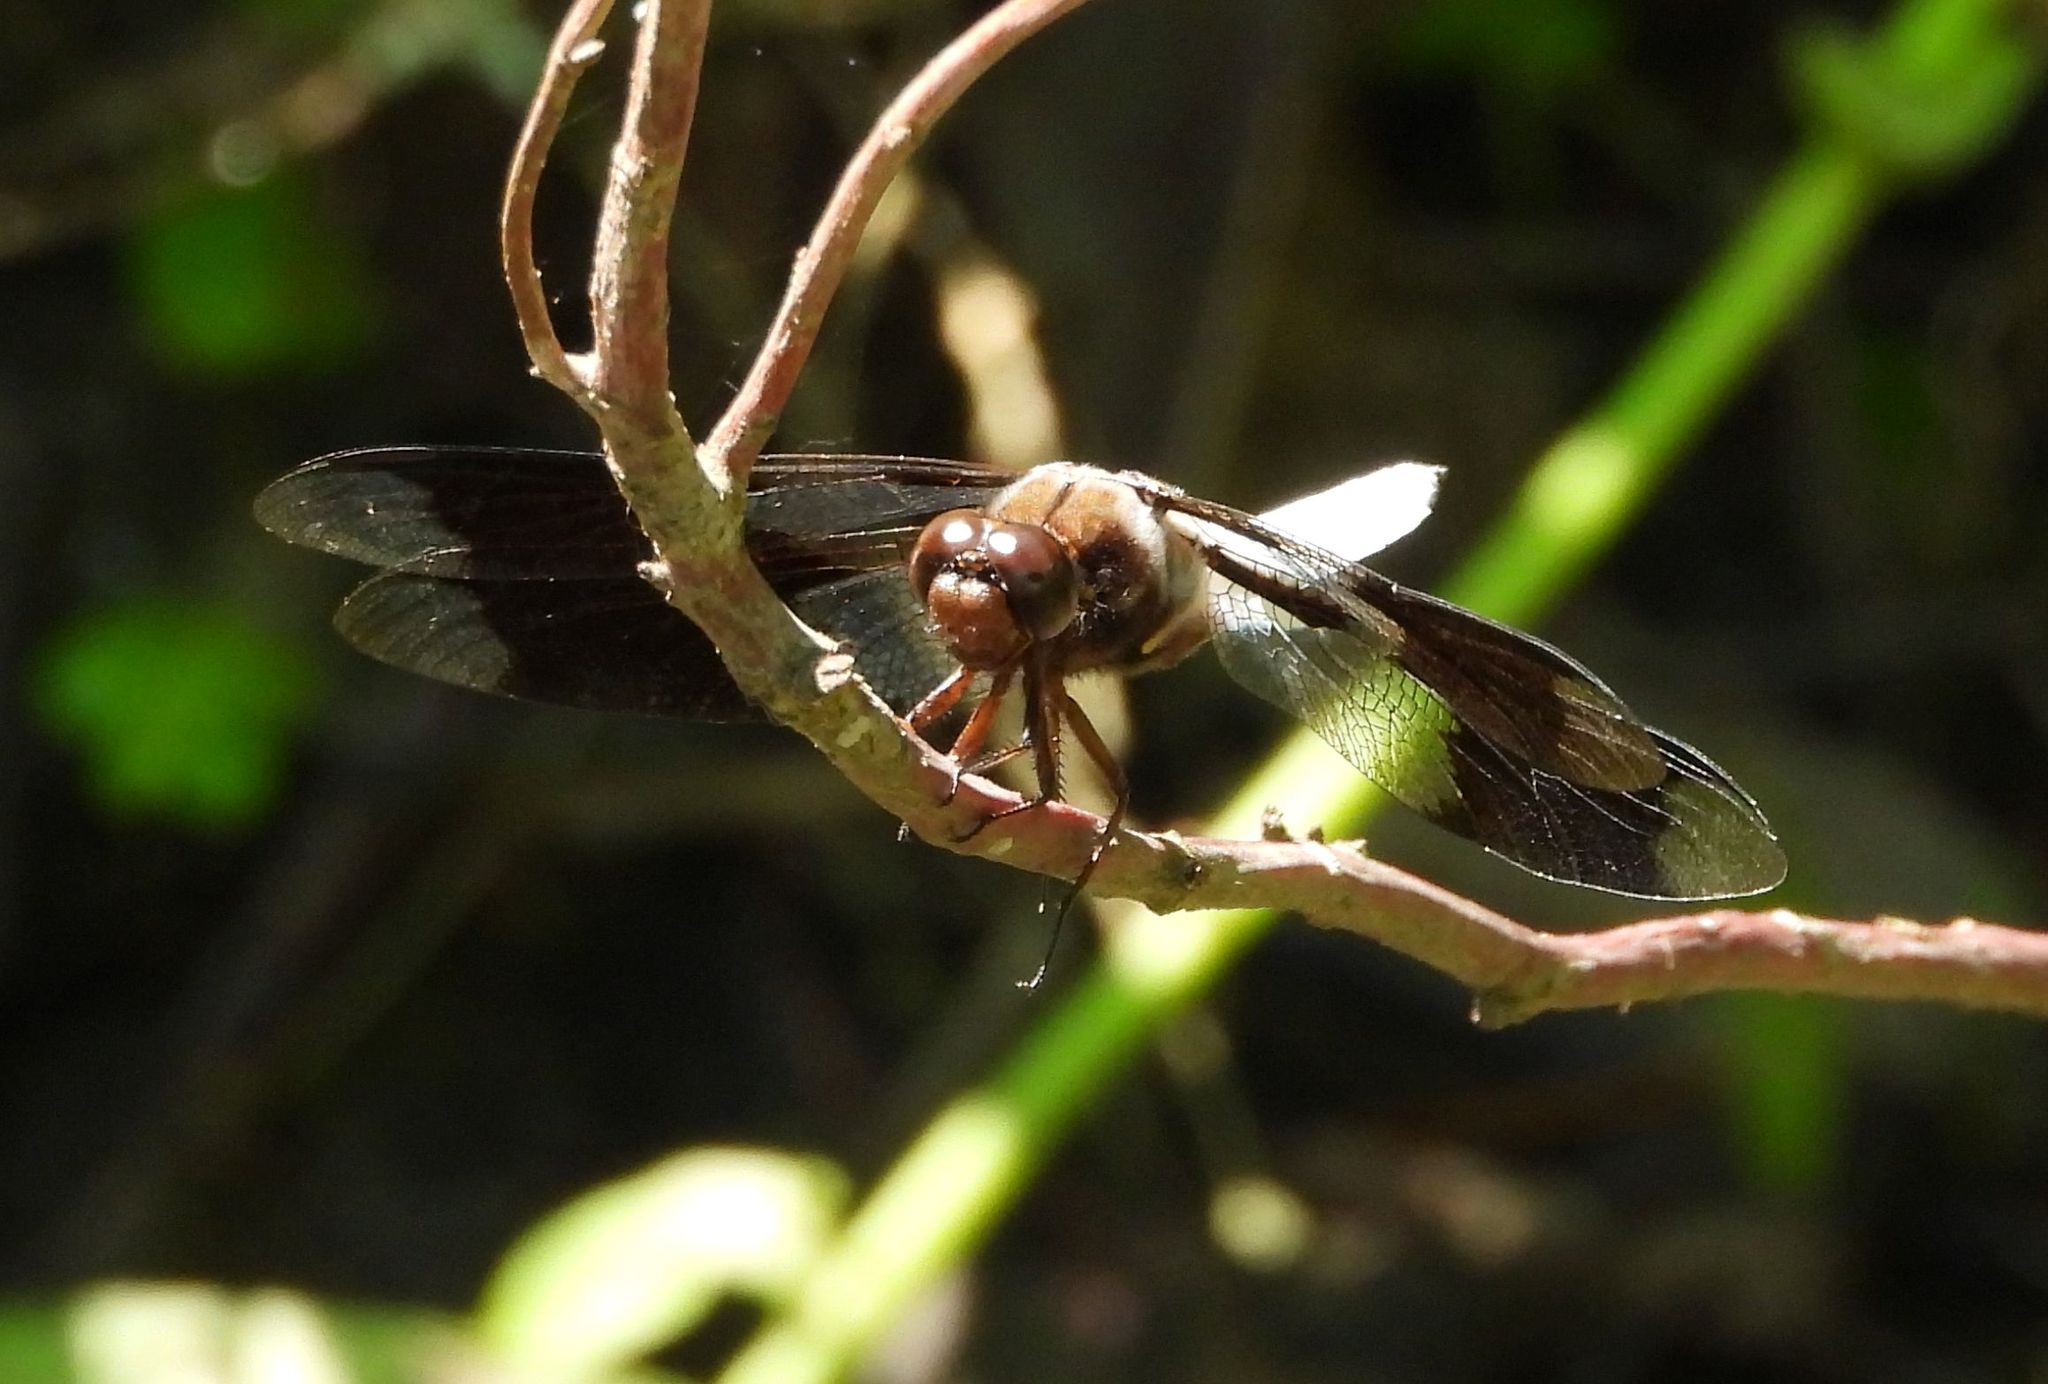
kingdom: Animalia
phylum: Arthropoda
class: Insecta
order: Odonata
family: Libellulidae
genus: Plathemis
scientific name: Plathemis lydia
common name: Common whitetail
